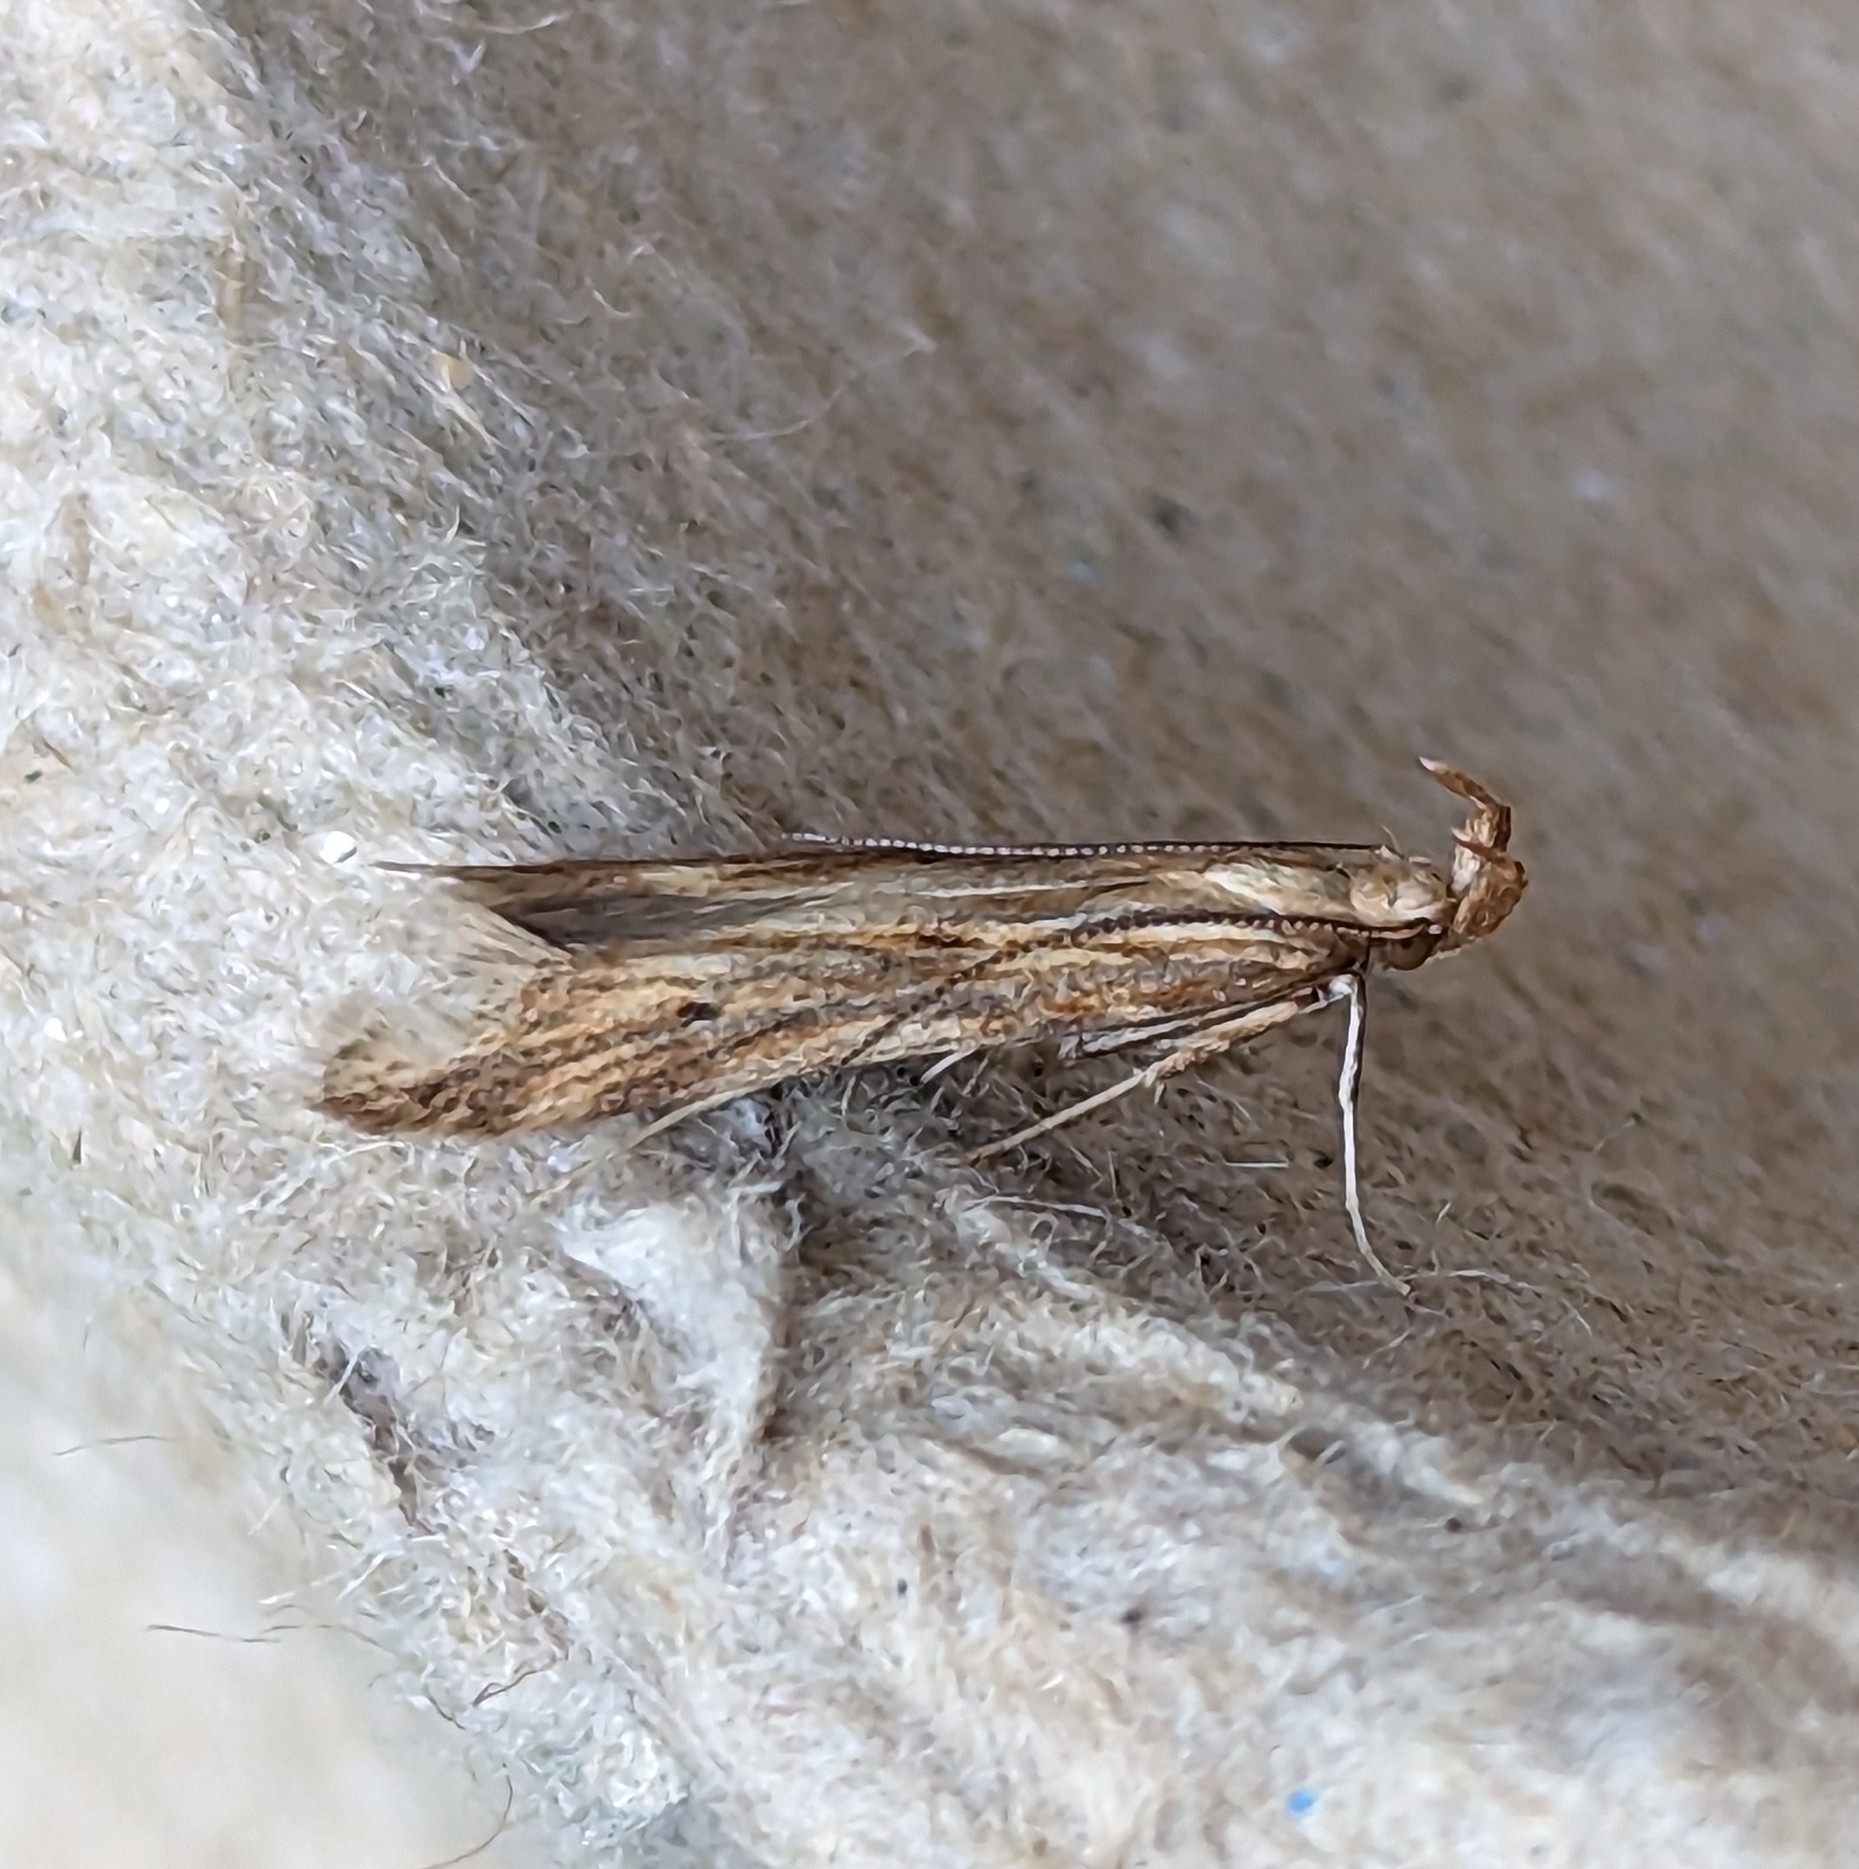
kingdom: Animalia
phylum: Arthropoda
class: Insecta
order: Lepidoptera
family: Gelechiidae
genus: Metzneria
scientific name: Metzneria lappella
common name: Burdock neb
